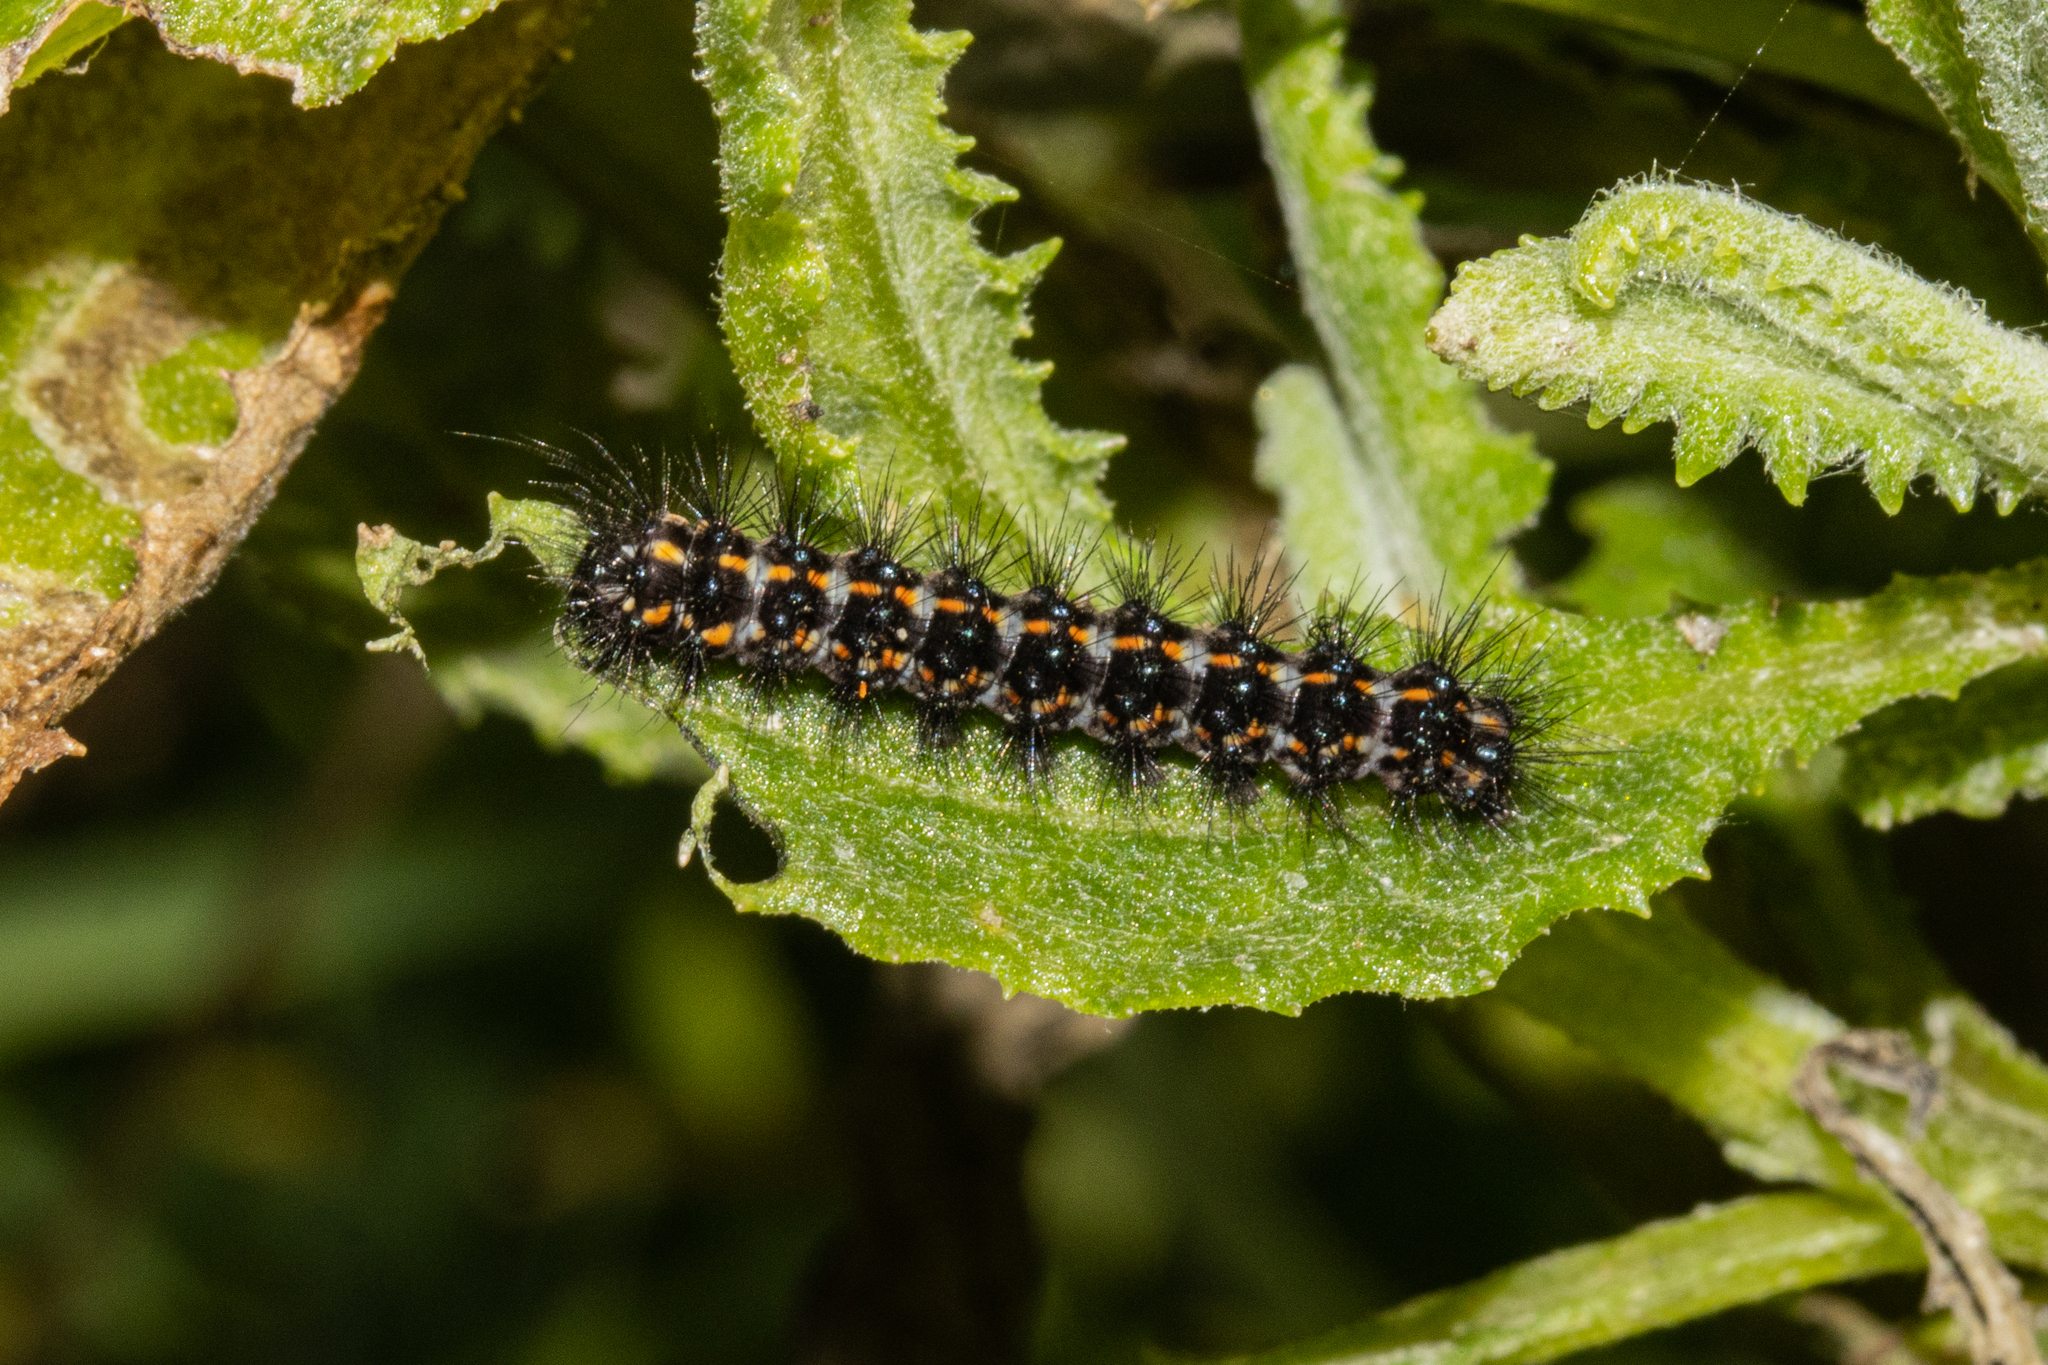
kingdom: Animalia
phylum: Arthropoda
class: Insecta
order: Lepidoptera
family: Erebidae
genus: Nyctemera
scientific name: Nyctemera annulatum
